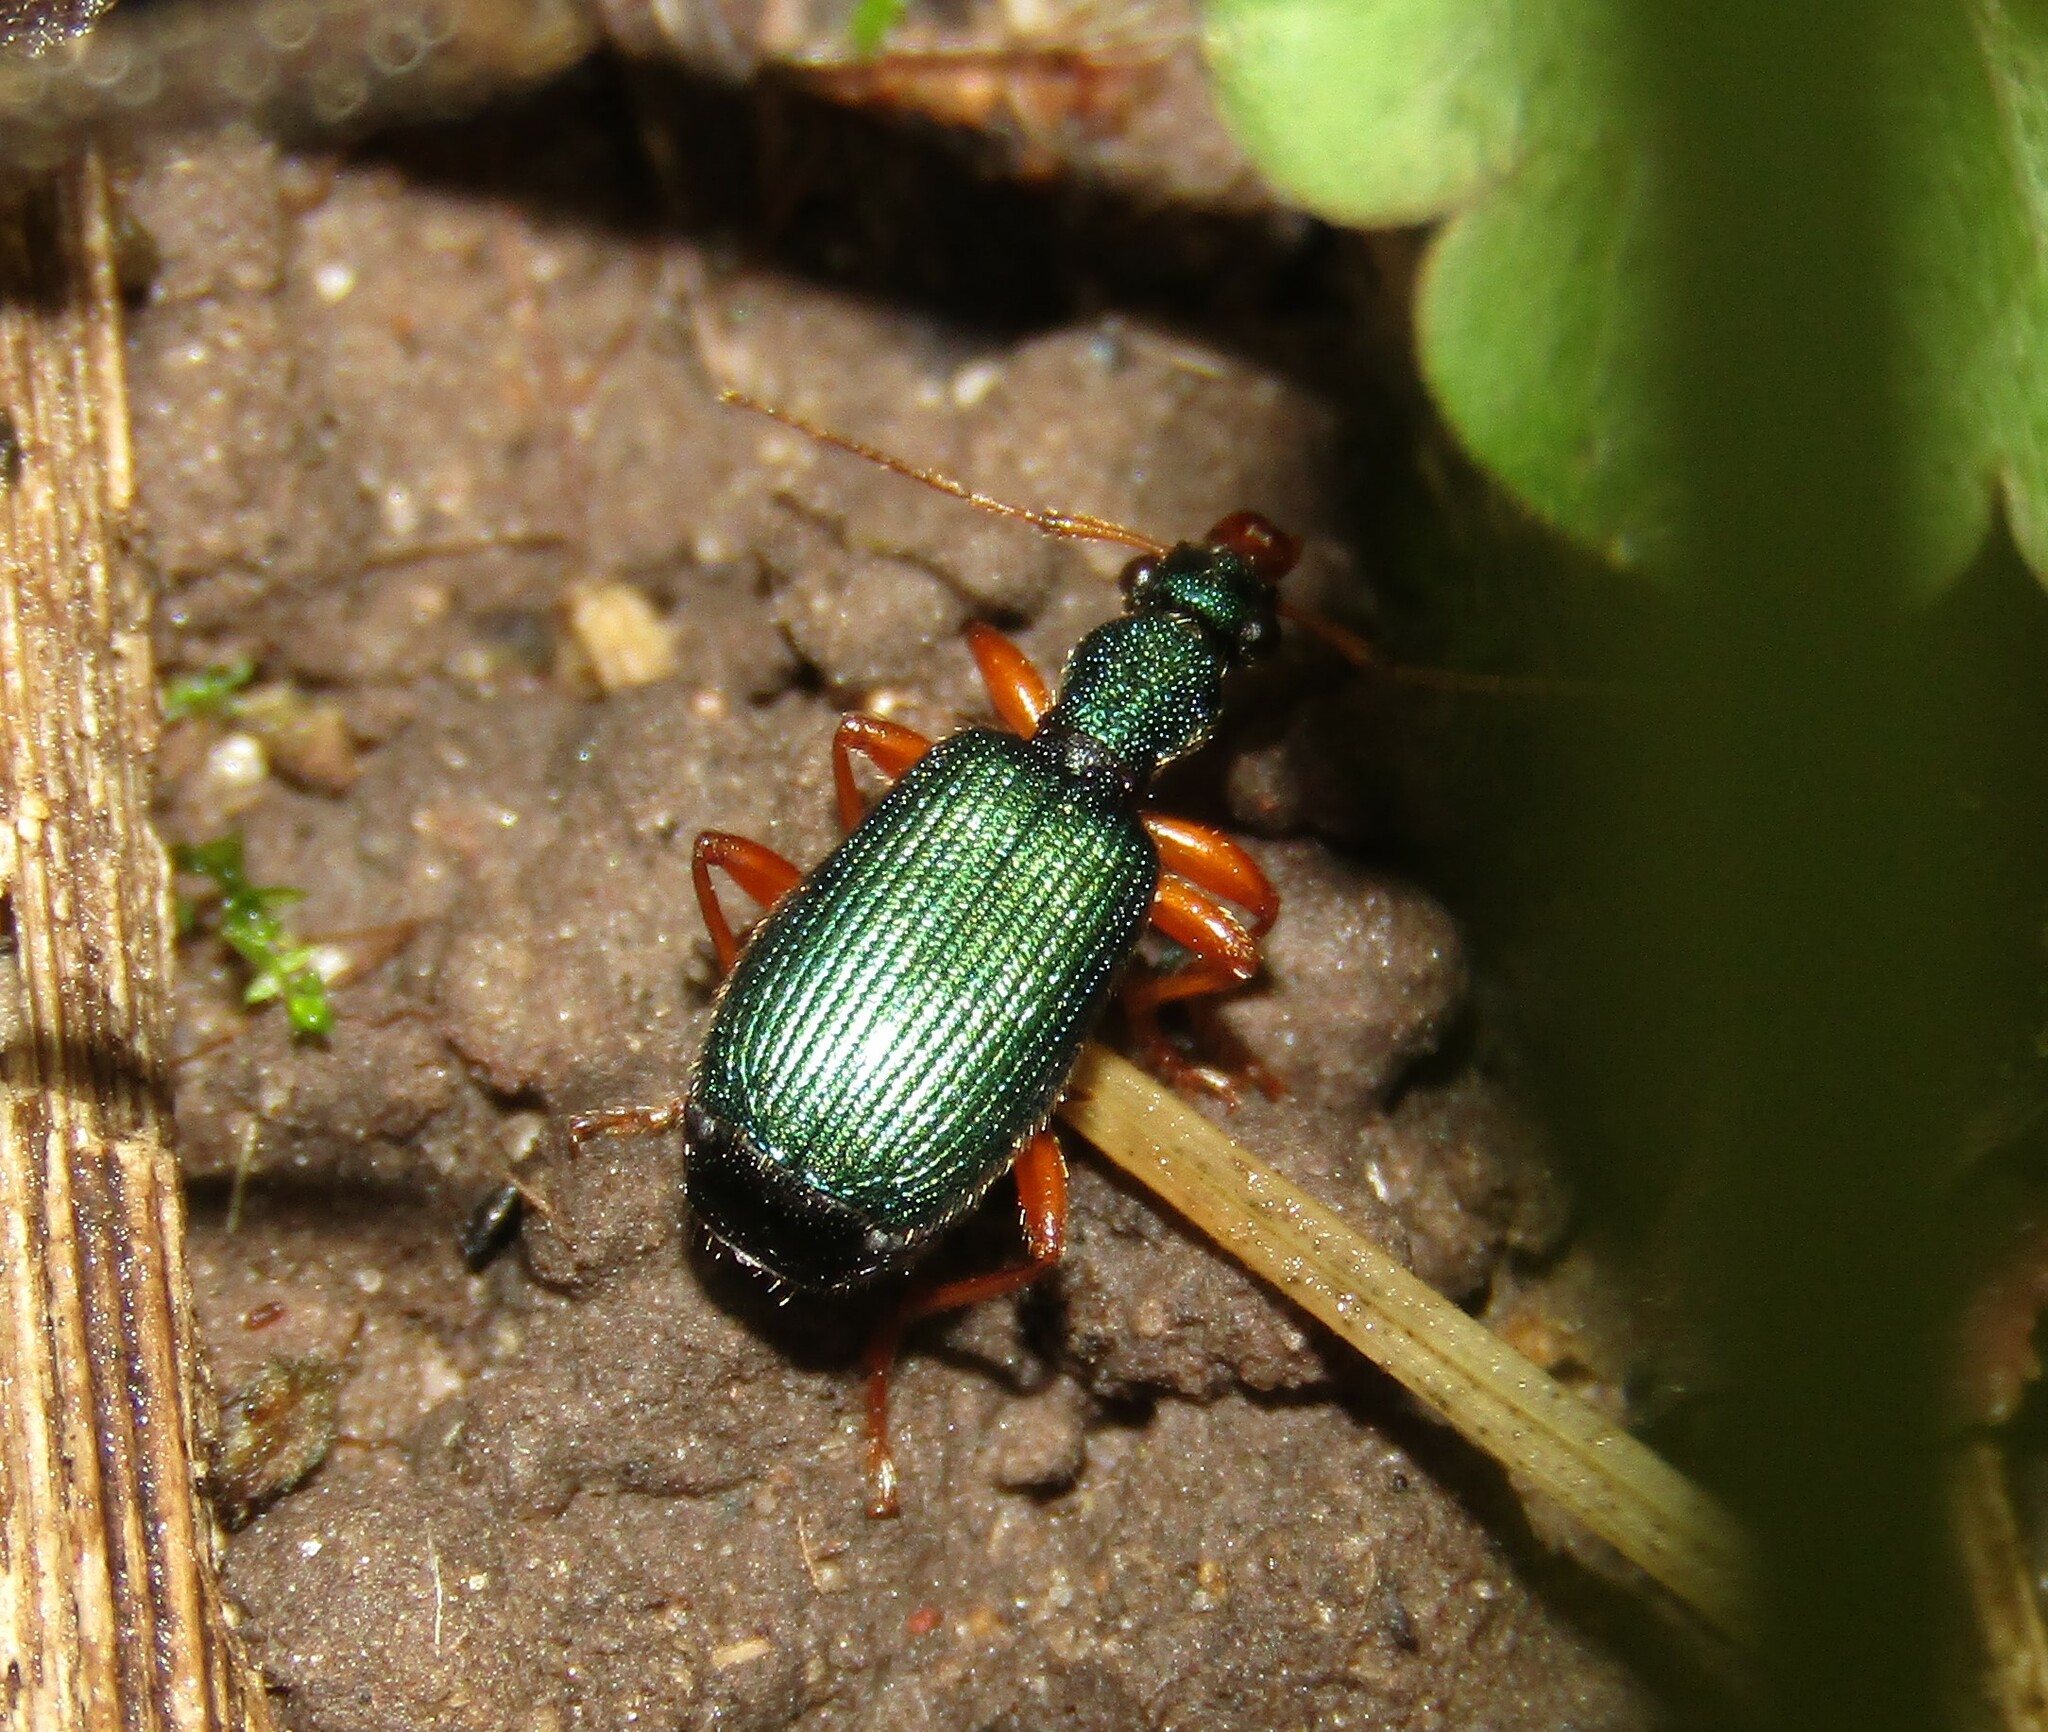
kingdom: Animalia
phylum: Arthropoda
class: Insecta
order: Coleoptera
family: Carabidae
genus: Drypta
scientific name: Drypta dentata
